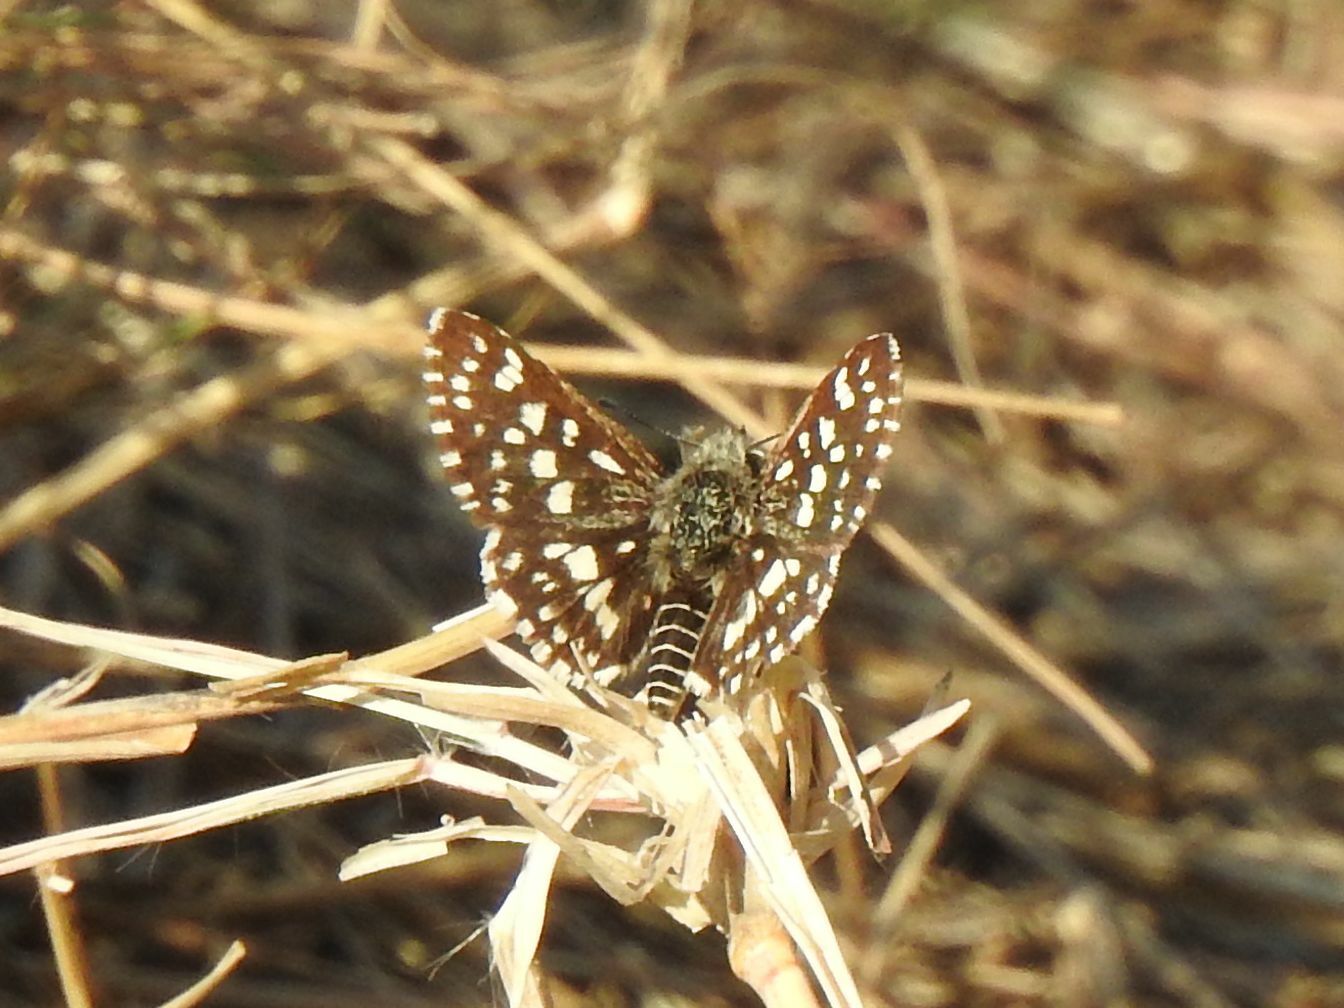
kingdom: Animalia
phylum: Arthropoda
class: Insecta
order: Lepidoptera
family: Hesperiidae
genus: Ernsta
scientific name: Ernsta
